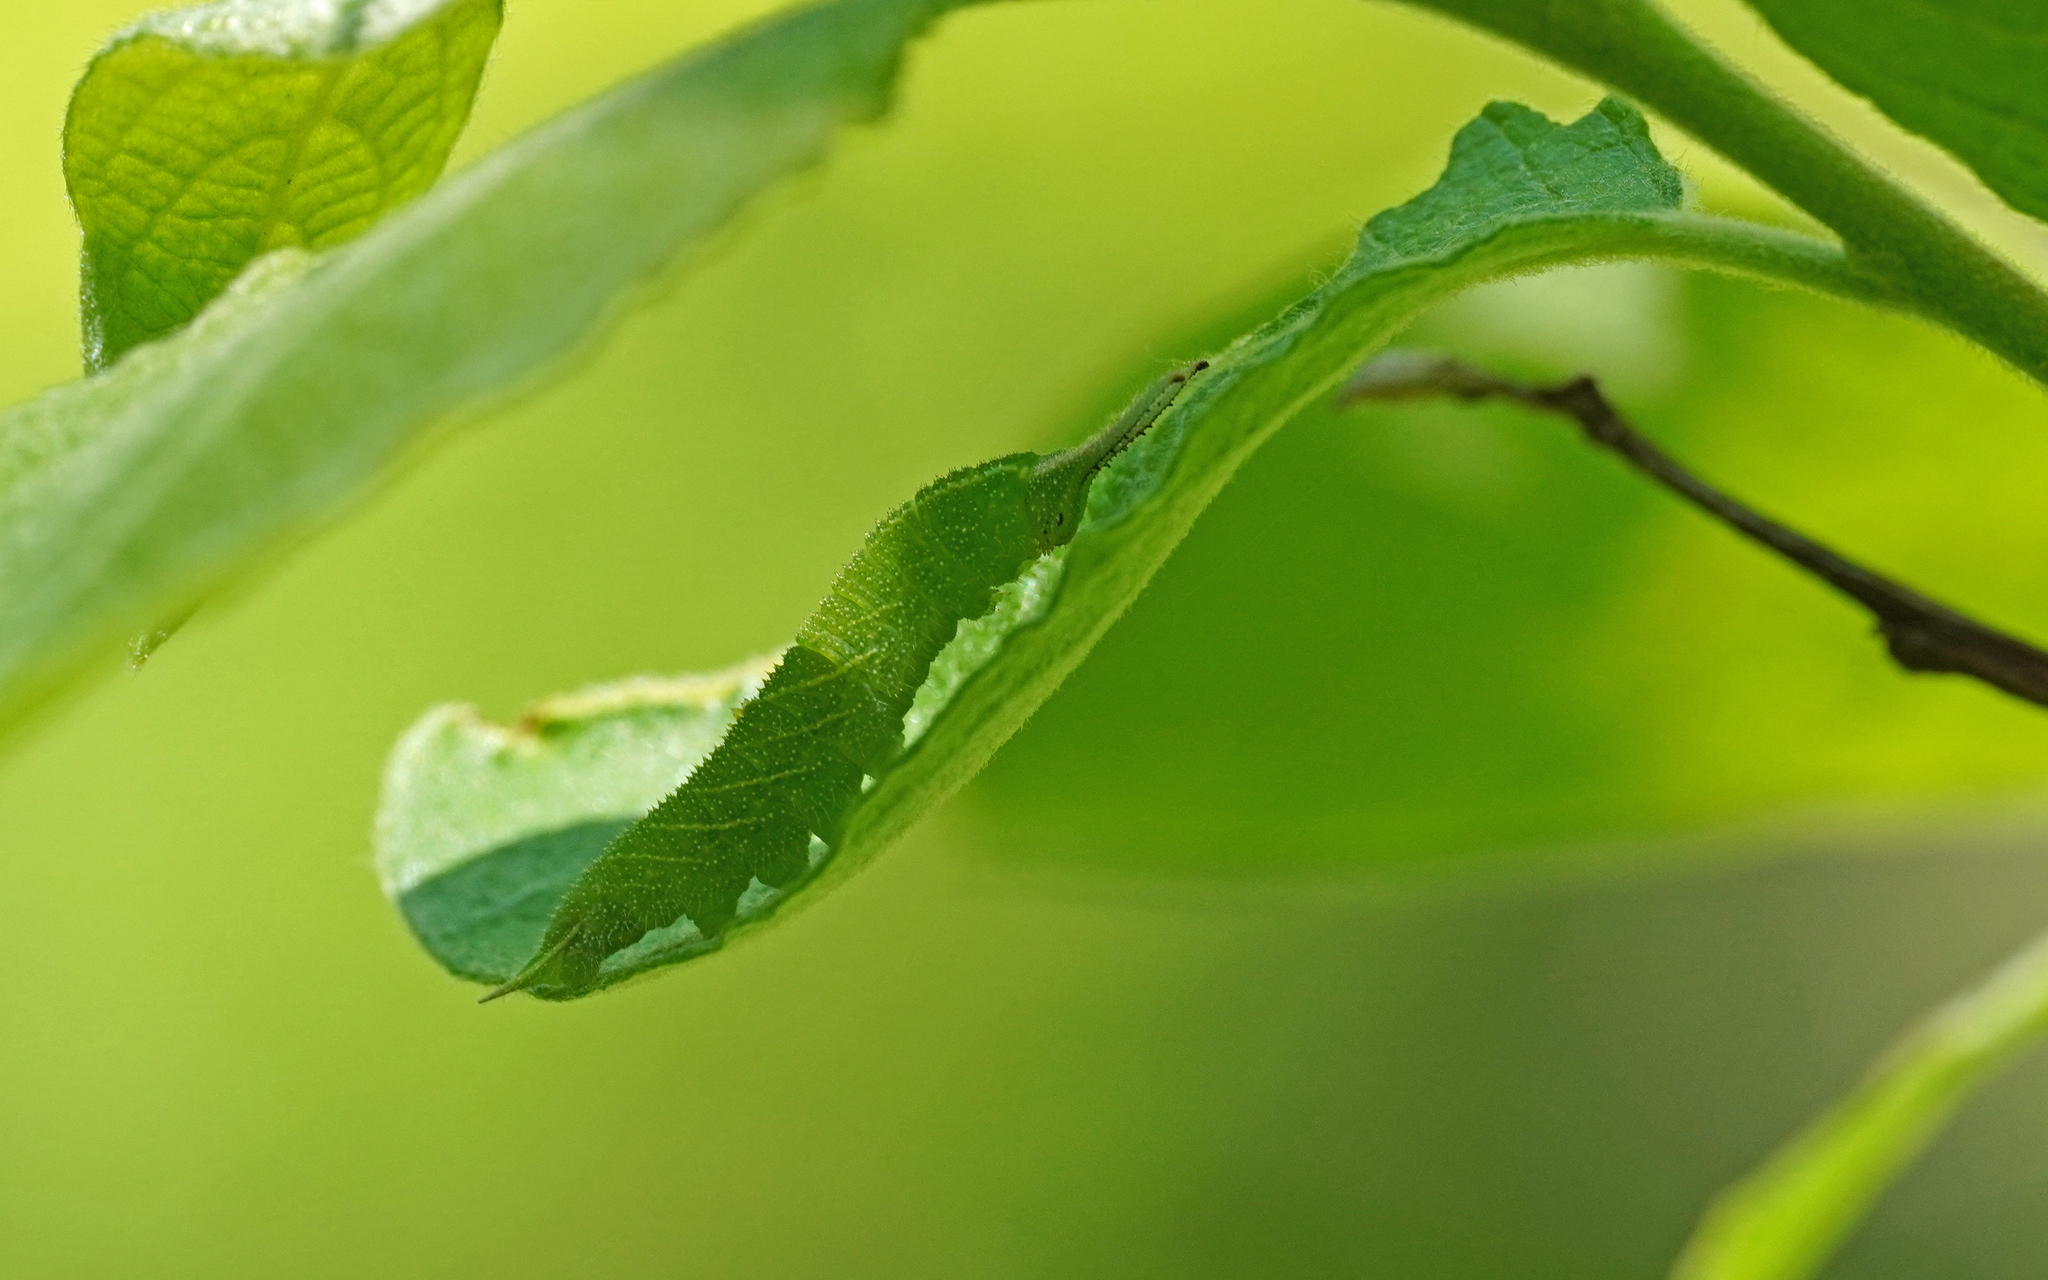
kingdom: Animalia
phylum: Arthropoda
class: Insecta
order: Lepidoptera
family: Nymphalidae
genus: Apatura
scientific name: Apatura iris
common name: Purple emperor
